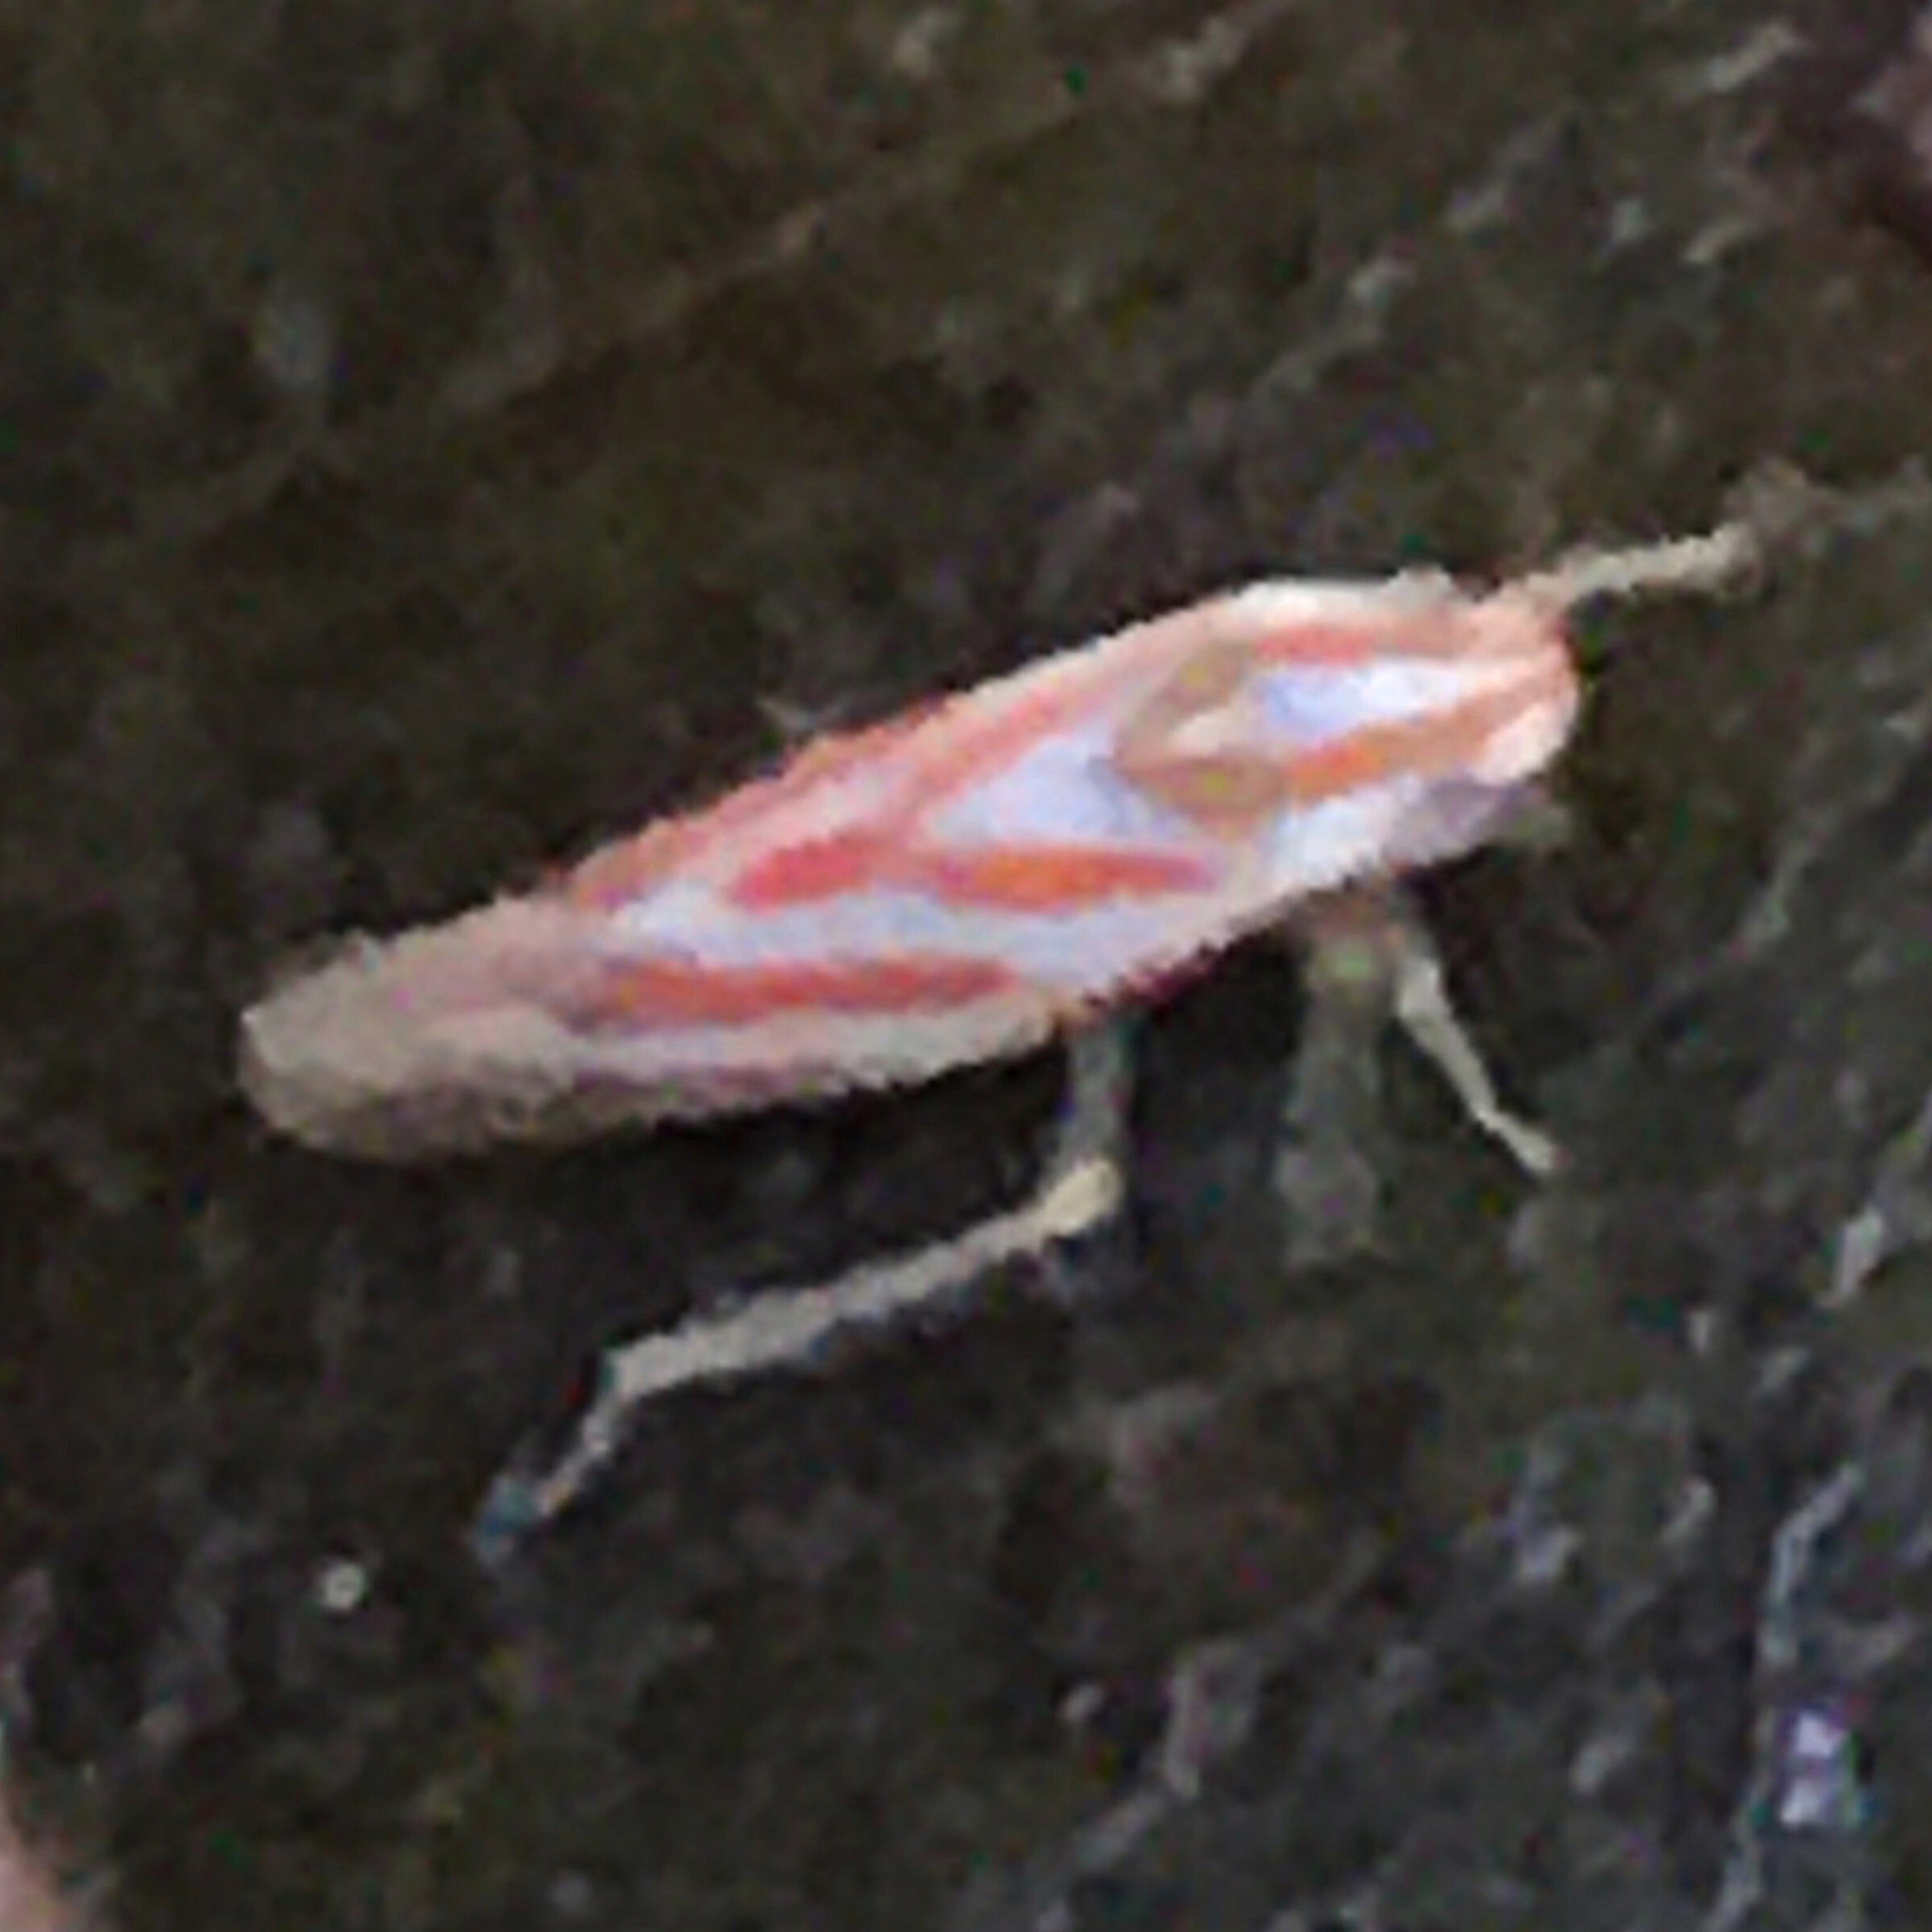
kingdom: Animalia
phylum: Arthropoda
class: Insecta
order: Hemiptera
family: Cicadellidae
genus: Graphocephala
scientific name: Graphocephala coccinea
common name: Candy-striped leafhopper
